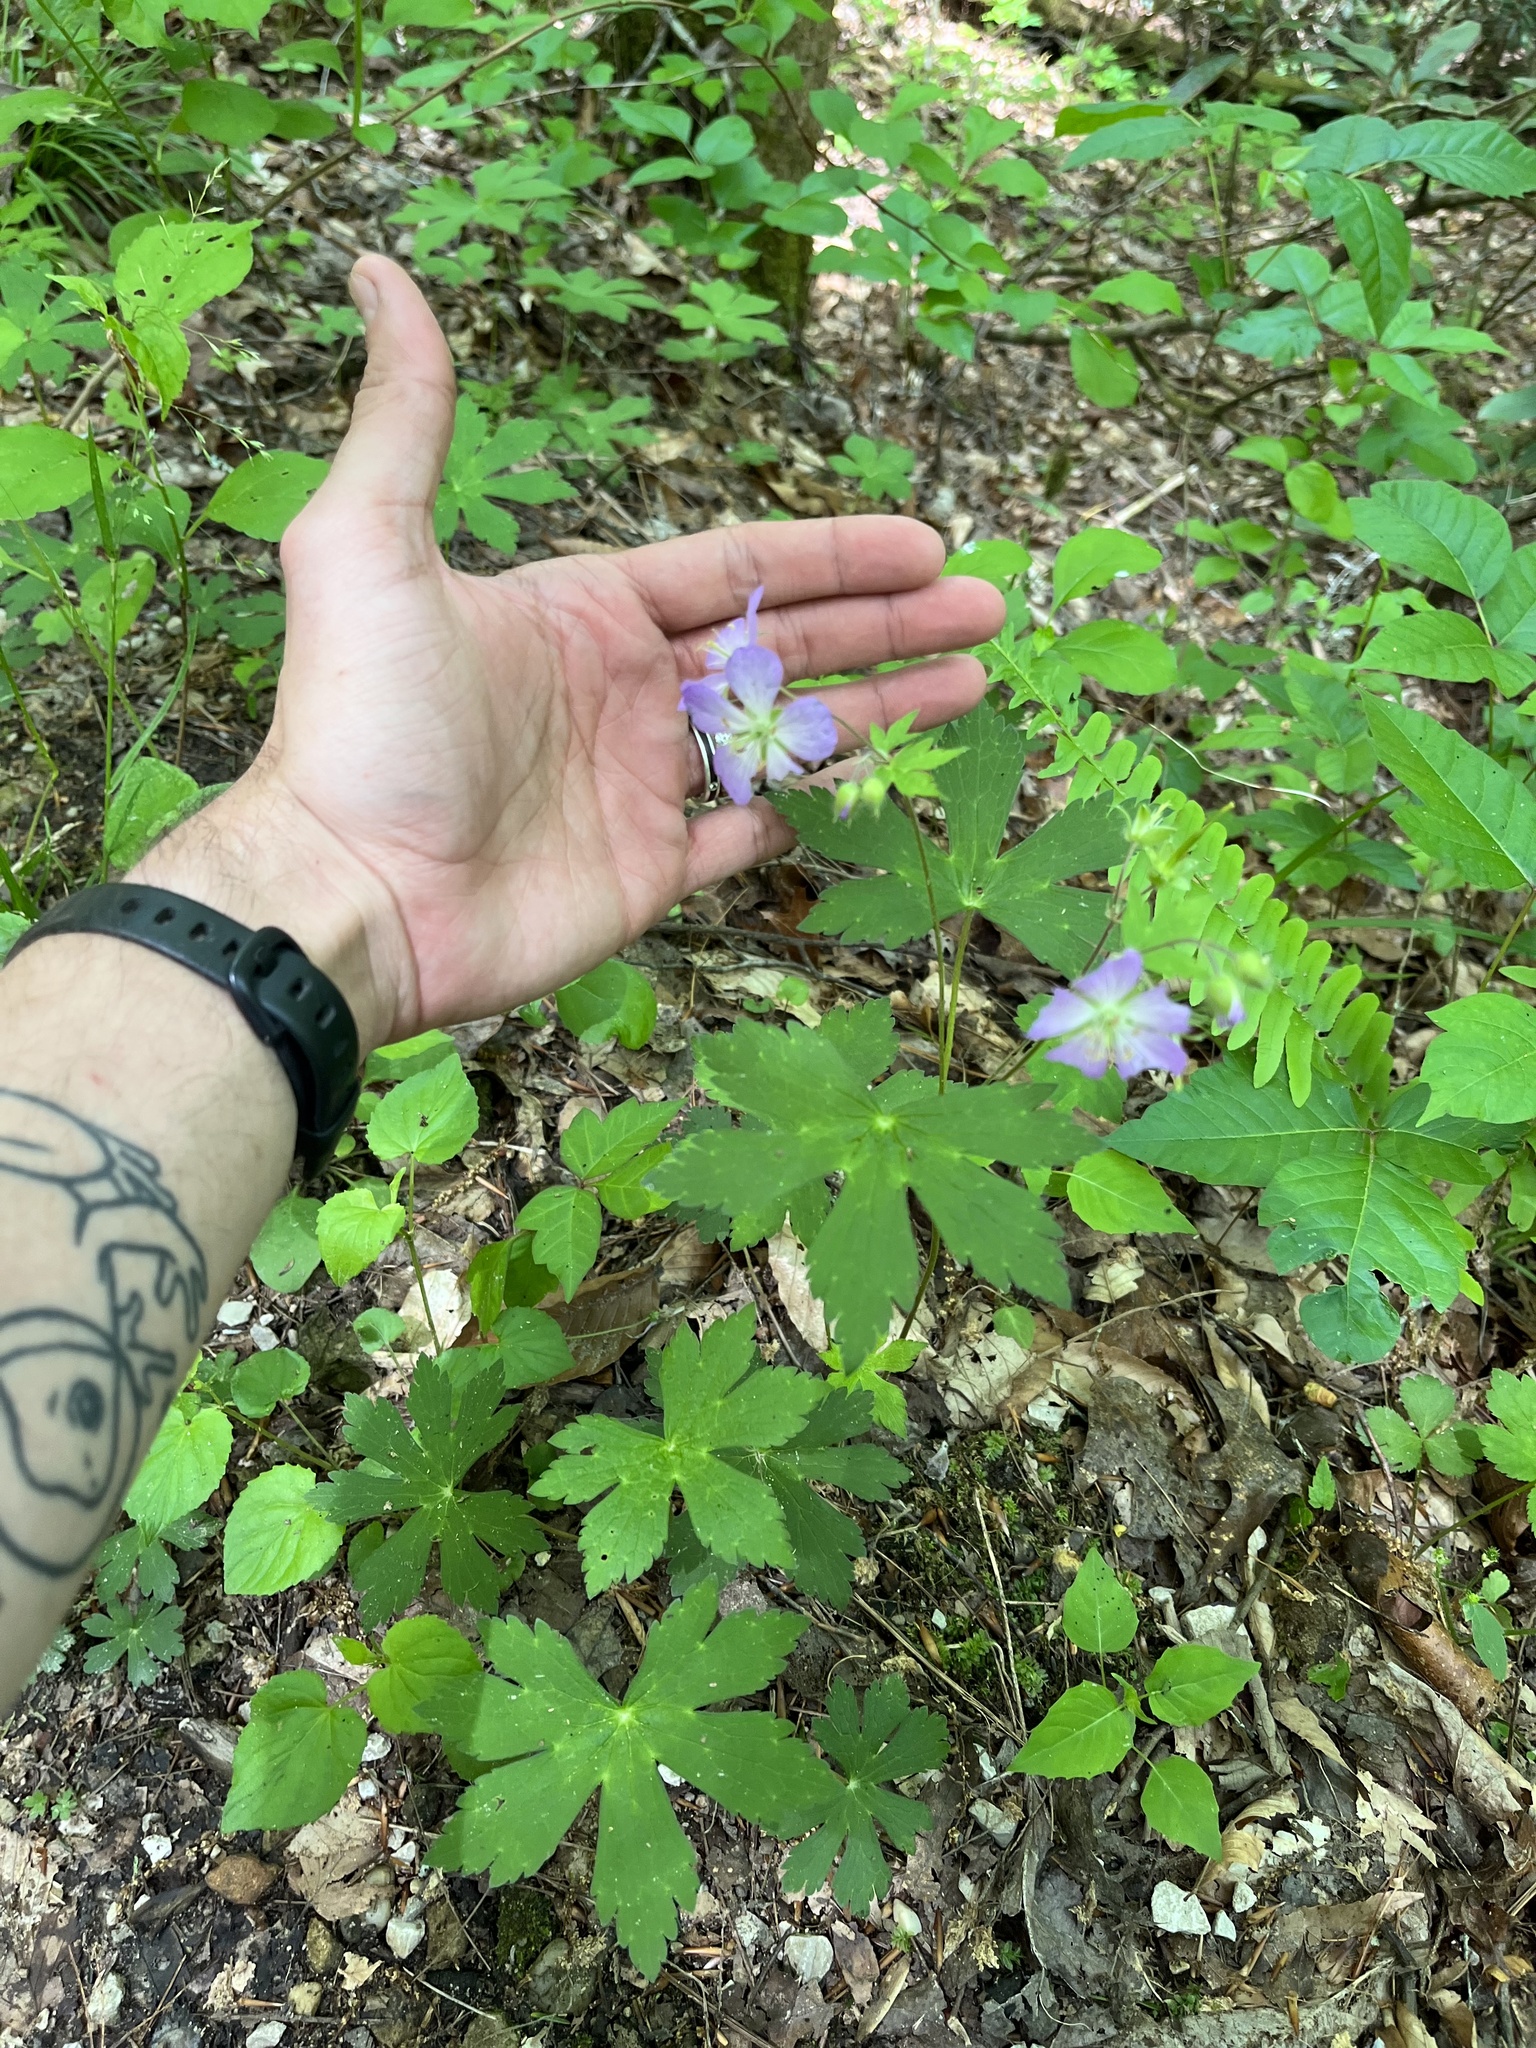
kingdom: Plantae
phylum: Tracheophyta
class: Magnoliopsida
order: Geraniales
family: Geraniaceae
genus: Geranium
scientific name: Geranium maculatum
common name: Spotted geranium
